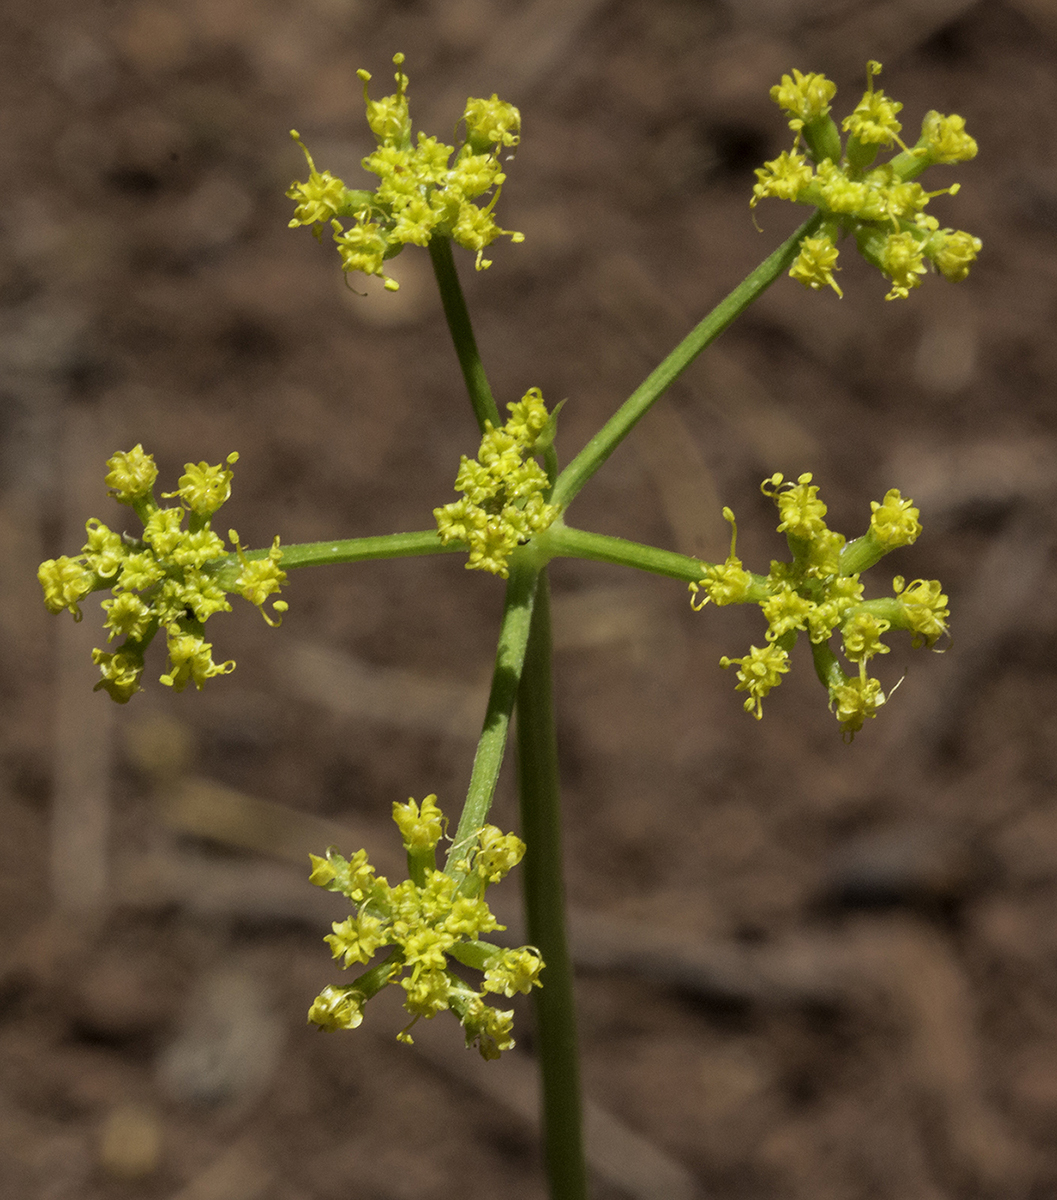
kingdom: Plantae
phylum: Tracheophyta
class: Magnoliopsida
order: Apiales
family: Apiaceae
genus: Cymopterus
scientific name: Cymopterus hallii
